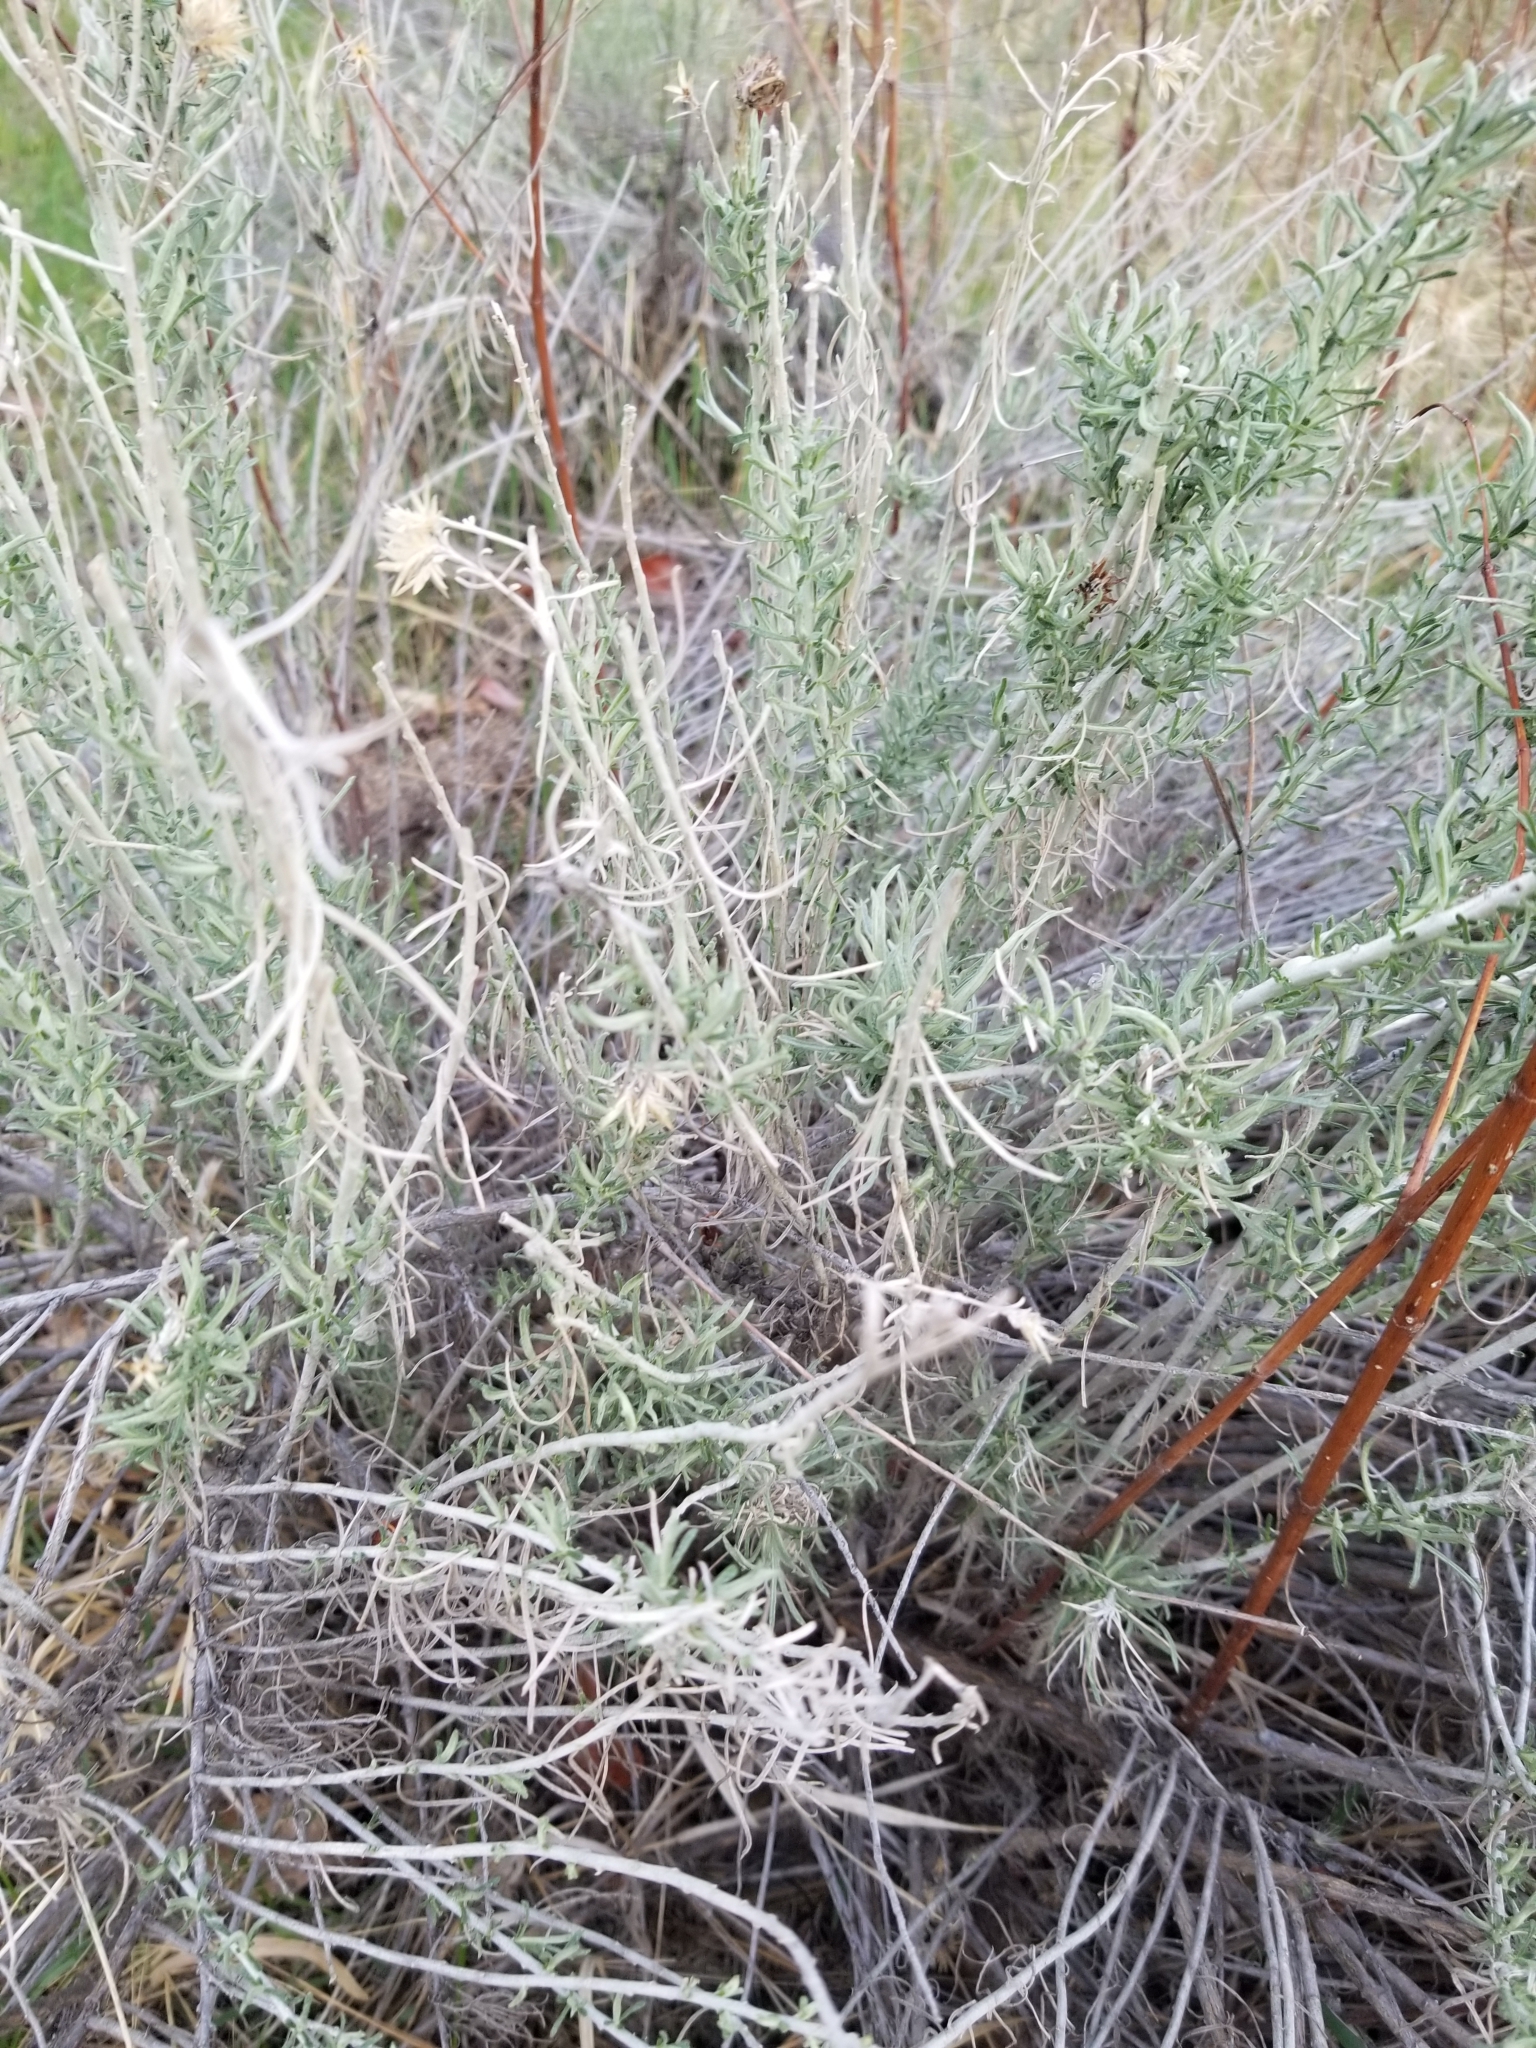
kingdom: Plantae
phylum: Tracheophyta
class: Magnoliopsida
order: Asterales
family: Asteraceae
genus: Ericameria
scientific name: Ericameria nauseosa
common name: Rubber rabbitbrush
